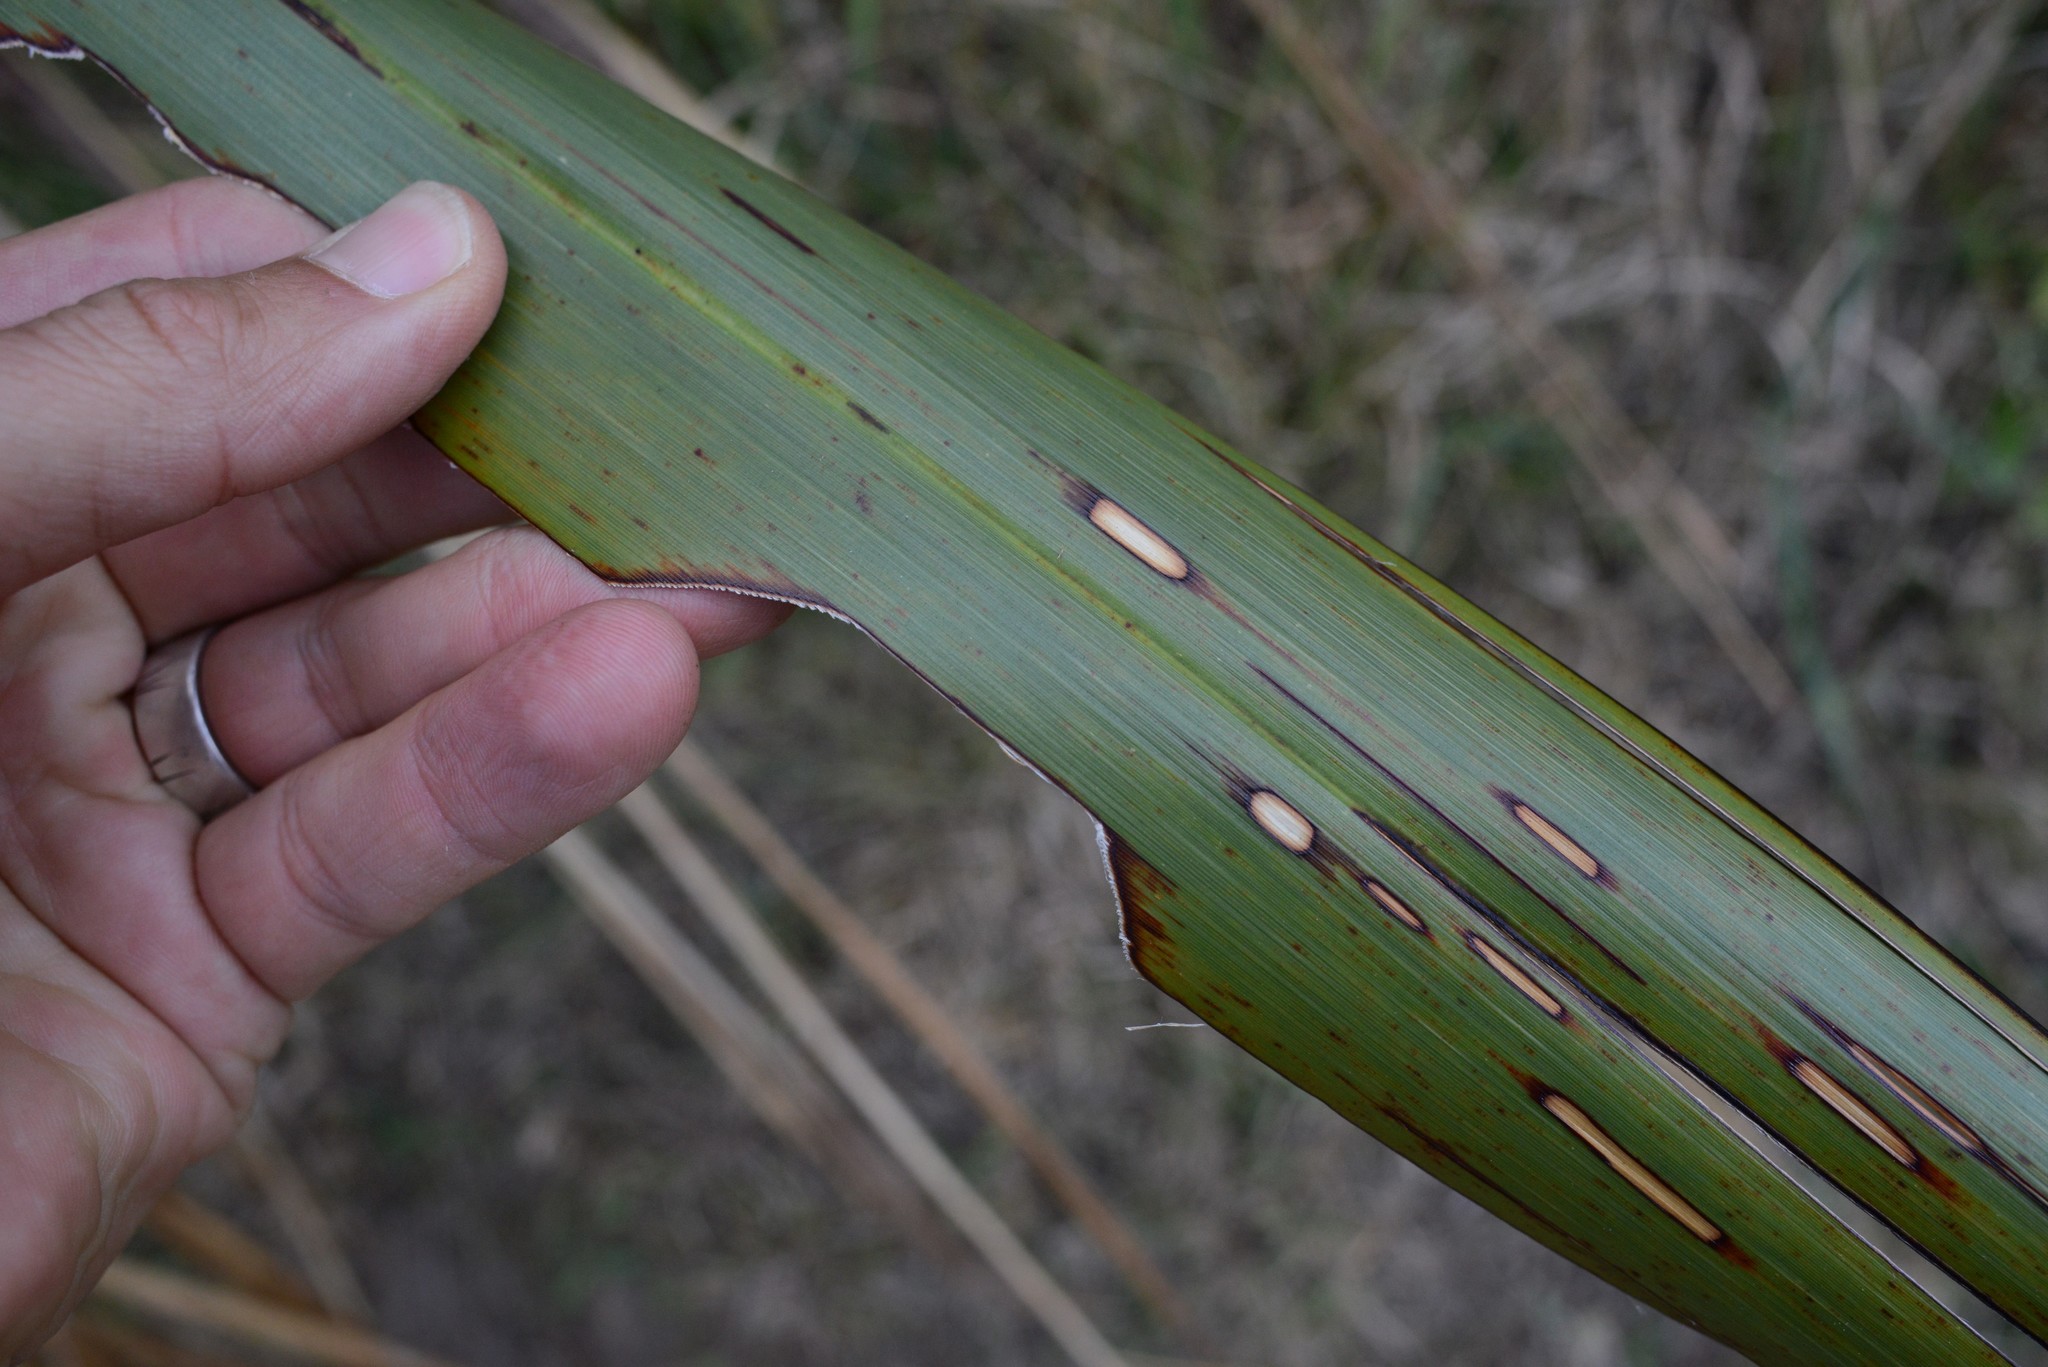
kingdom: Animalia
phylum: Arthropoda
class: Insecta
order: Lepidoptera
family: Geometridae
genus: Orthoclydon
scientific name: Orthoclydon praefectata
